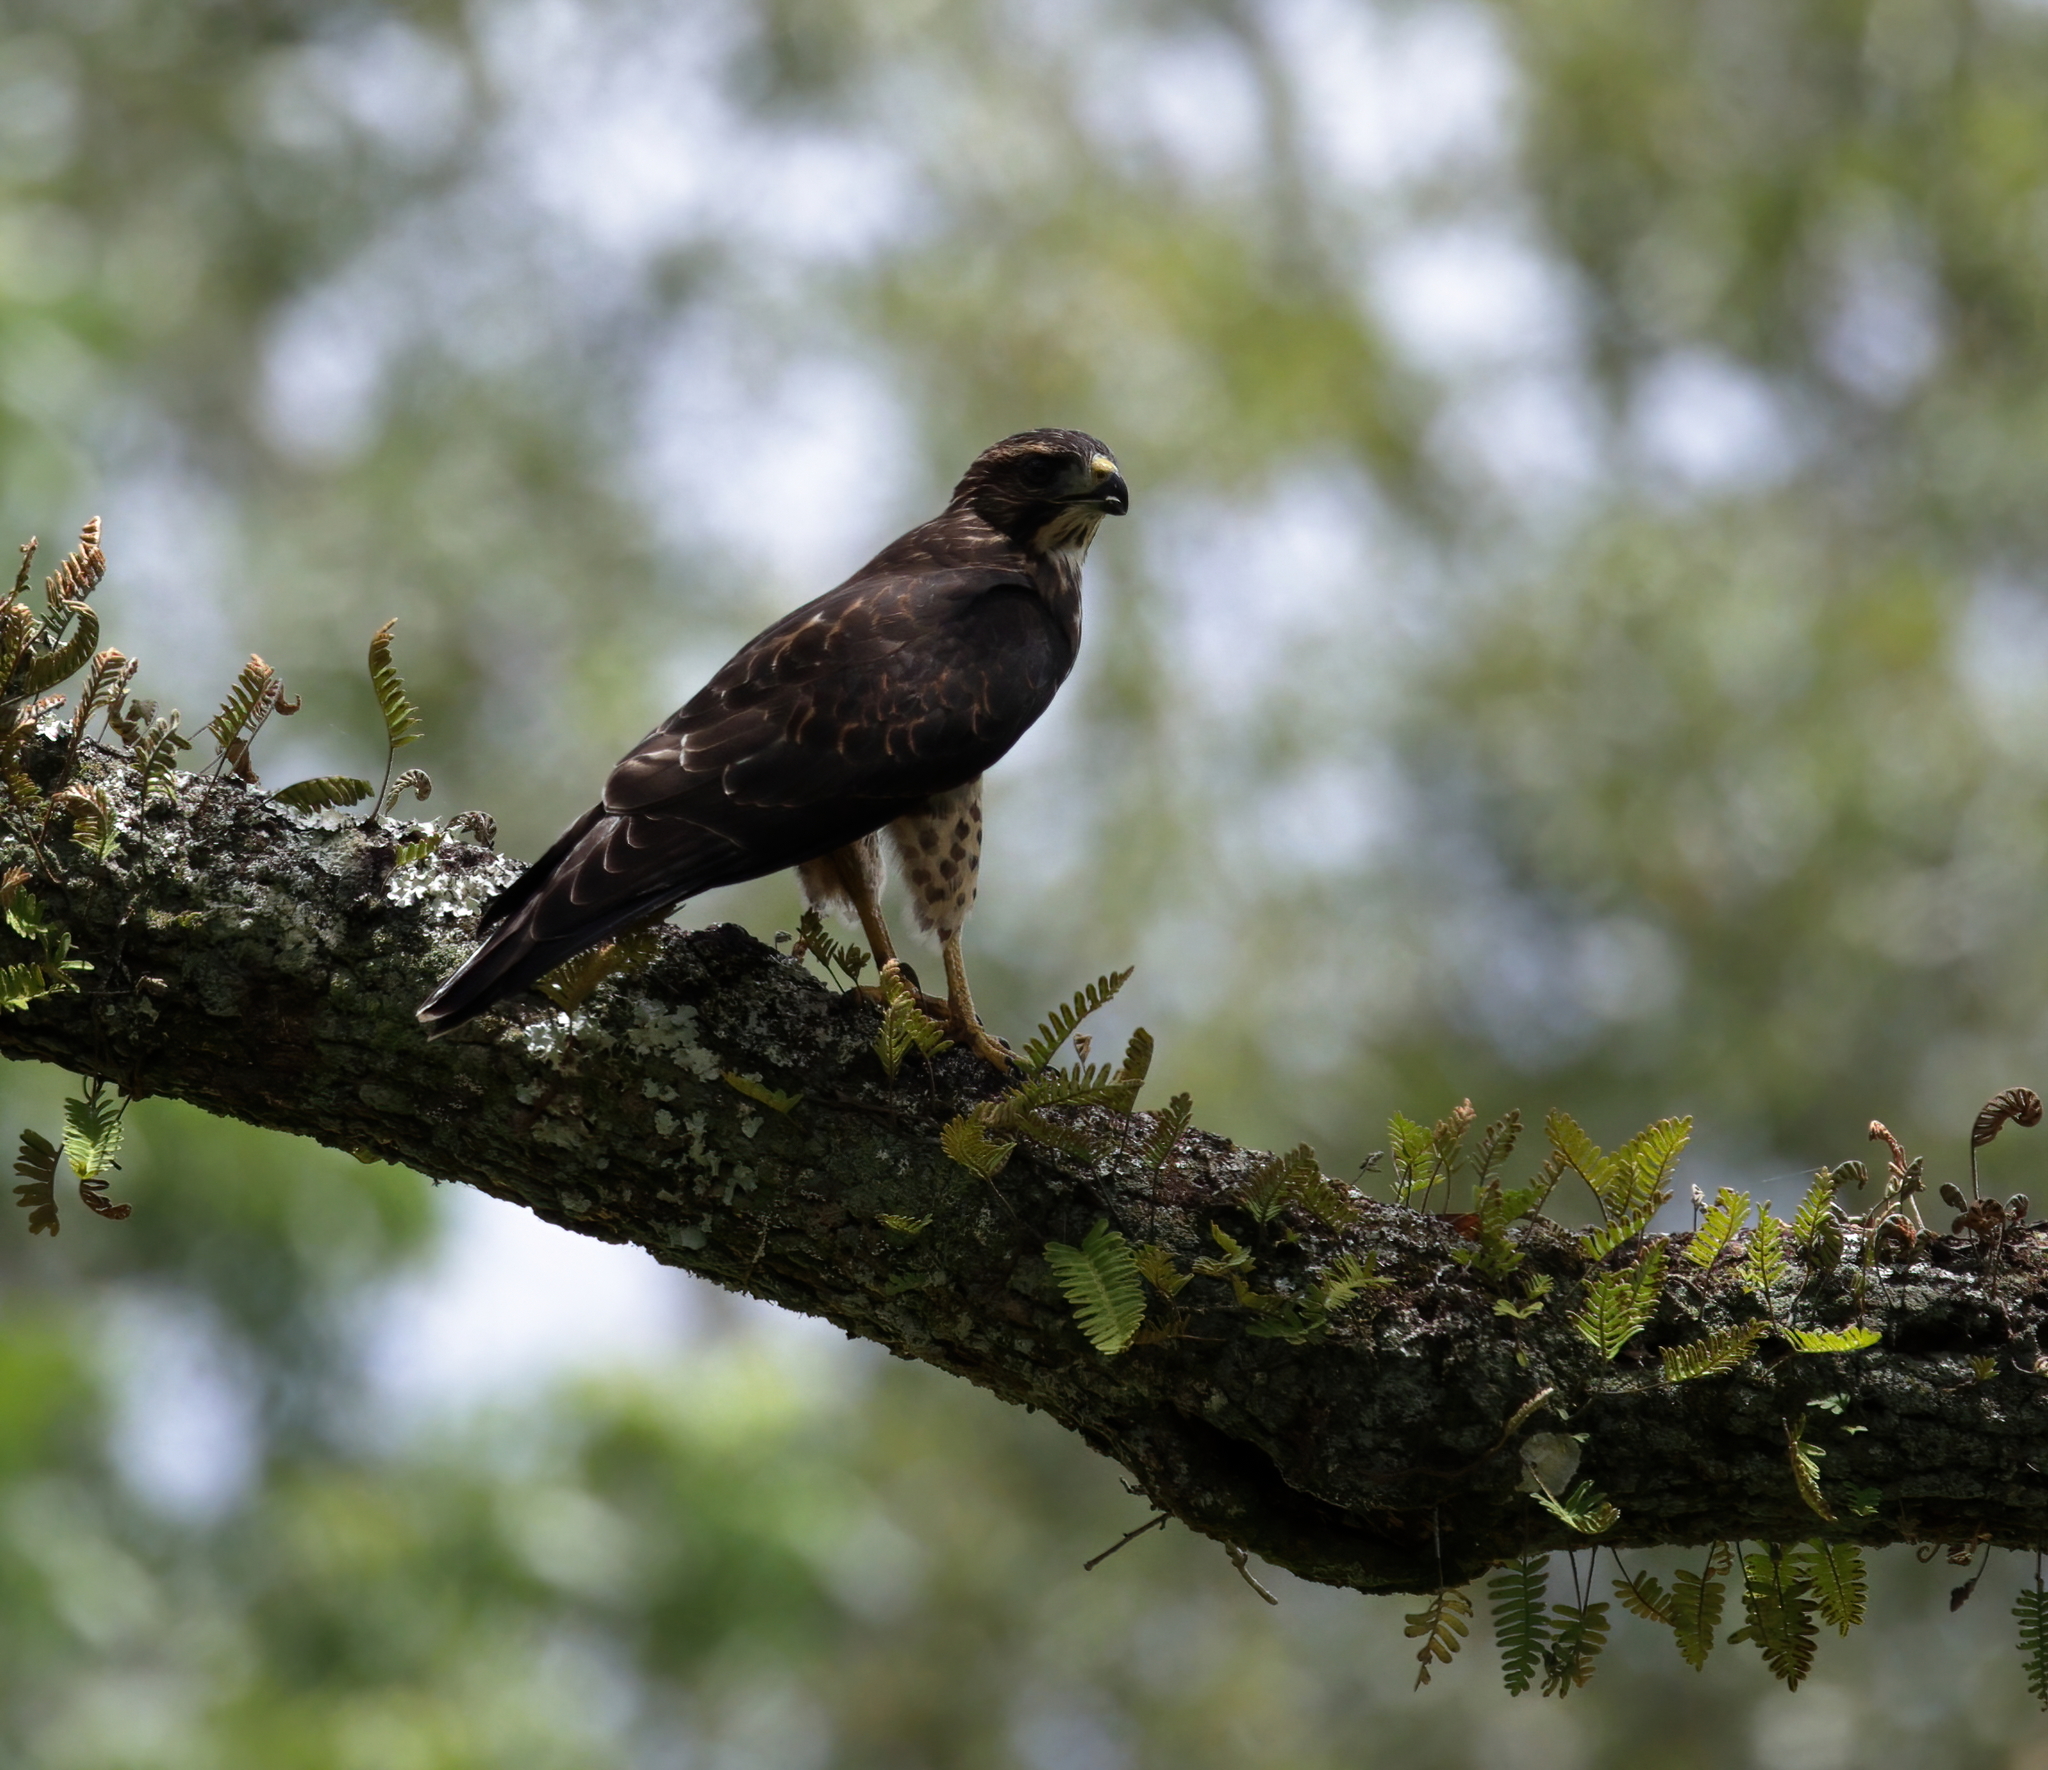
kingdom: Animalia
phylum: Chordata
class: Aves
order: Accipitriformes
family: Accipitridae
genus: Buteo
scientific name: Buteo platypterus
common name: Broad-winged hawk
